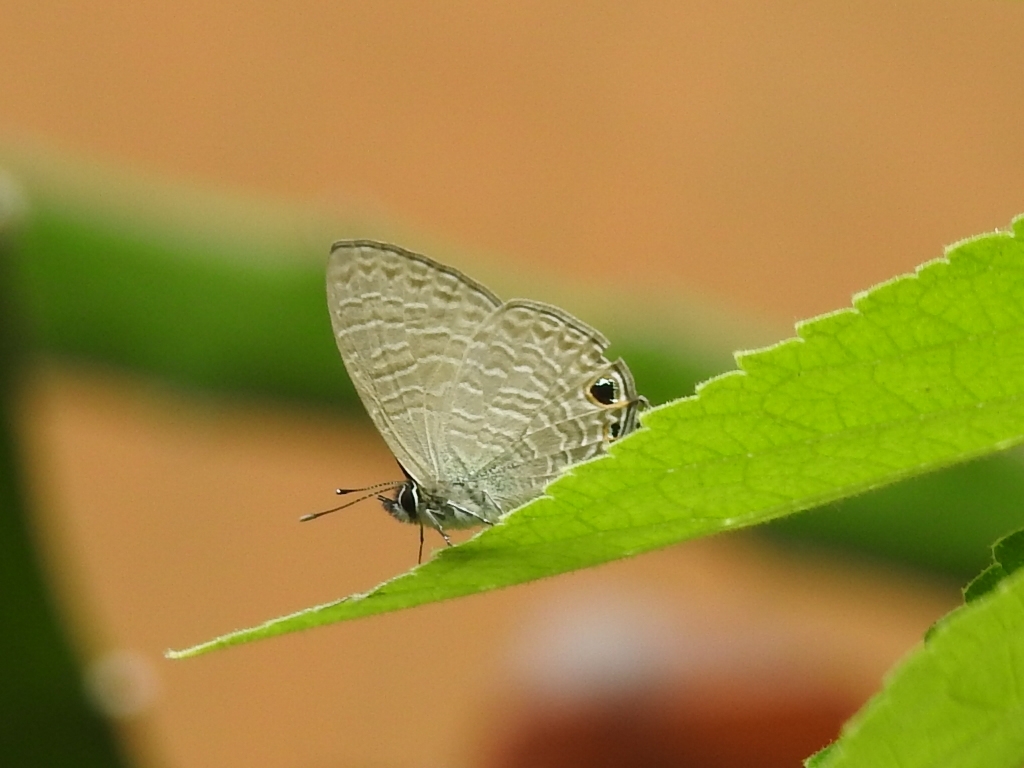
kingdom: Animalia
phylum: Arthropoda
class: Insecta
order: Lepidoptera
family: Lycaenidae
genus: Nacaduba
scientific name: Nacaduba berenice
